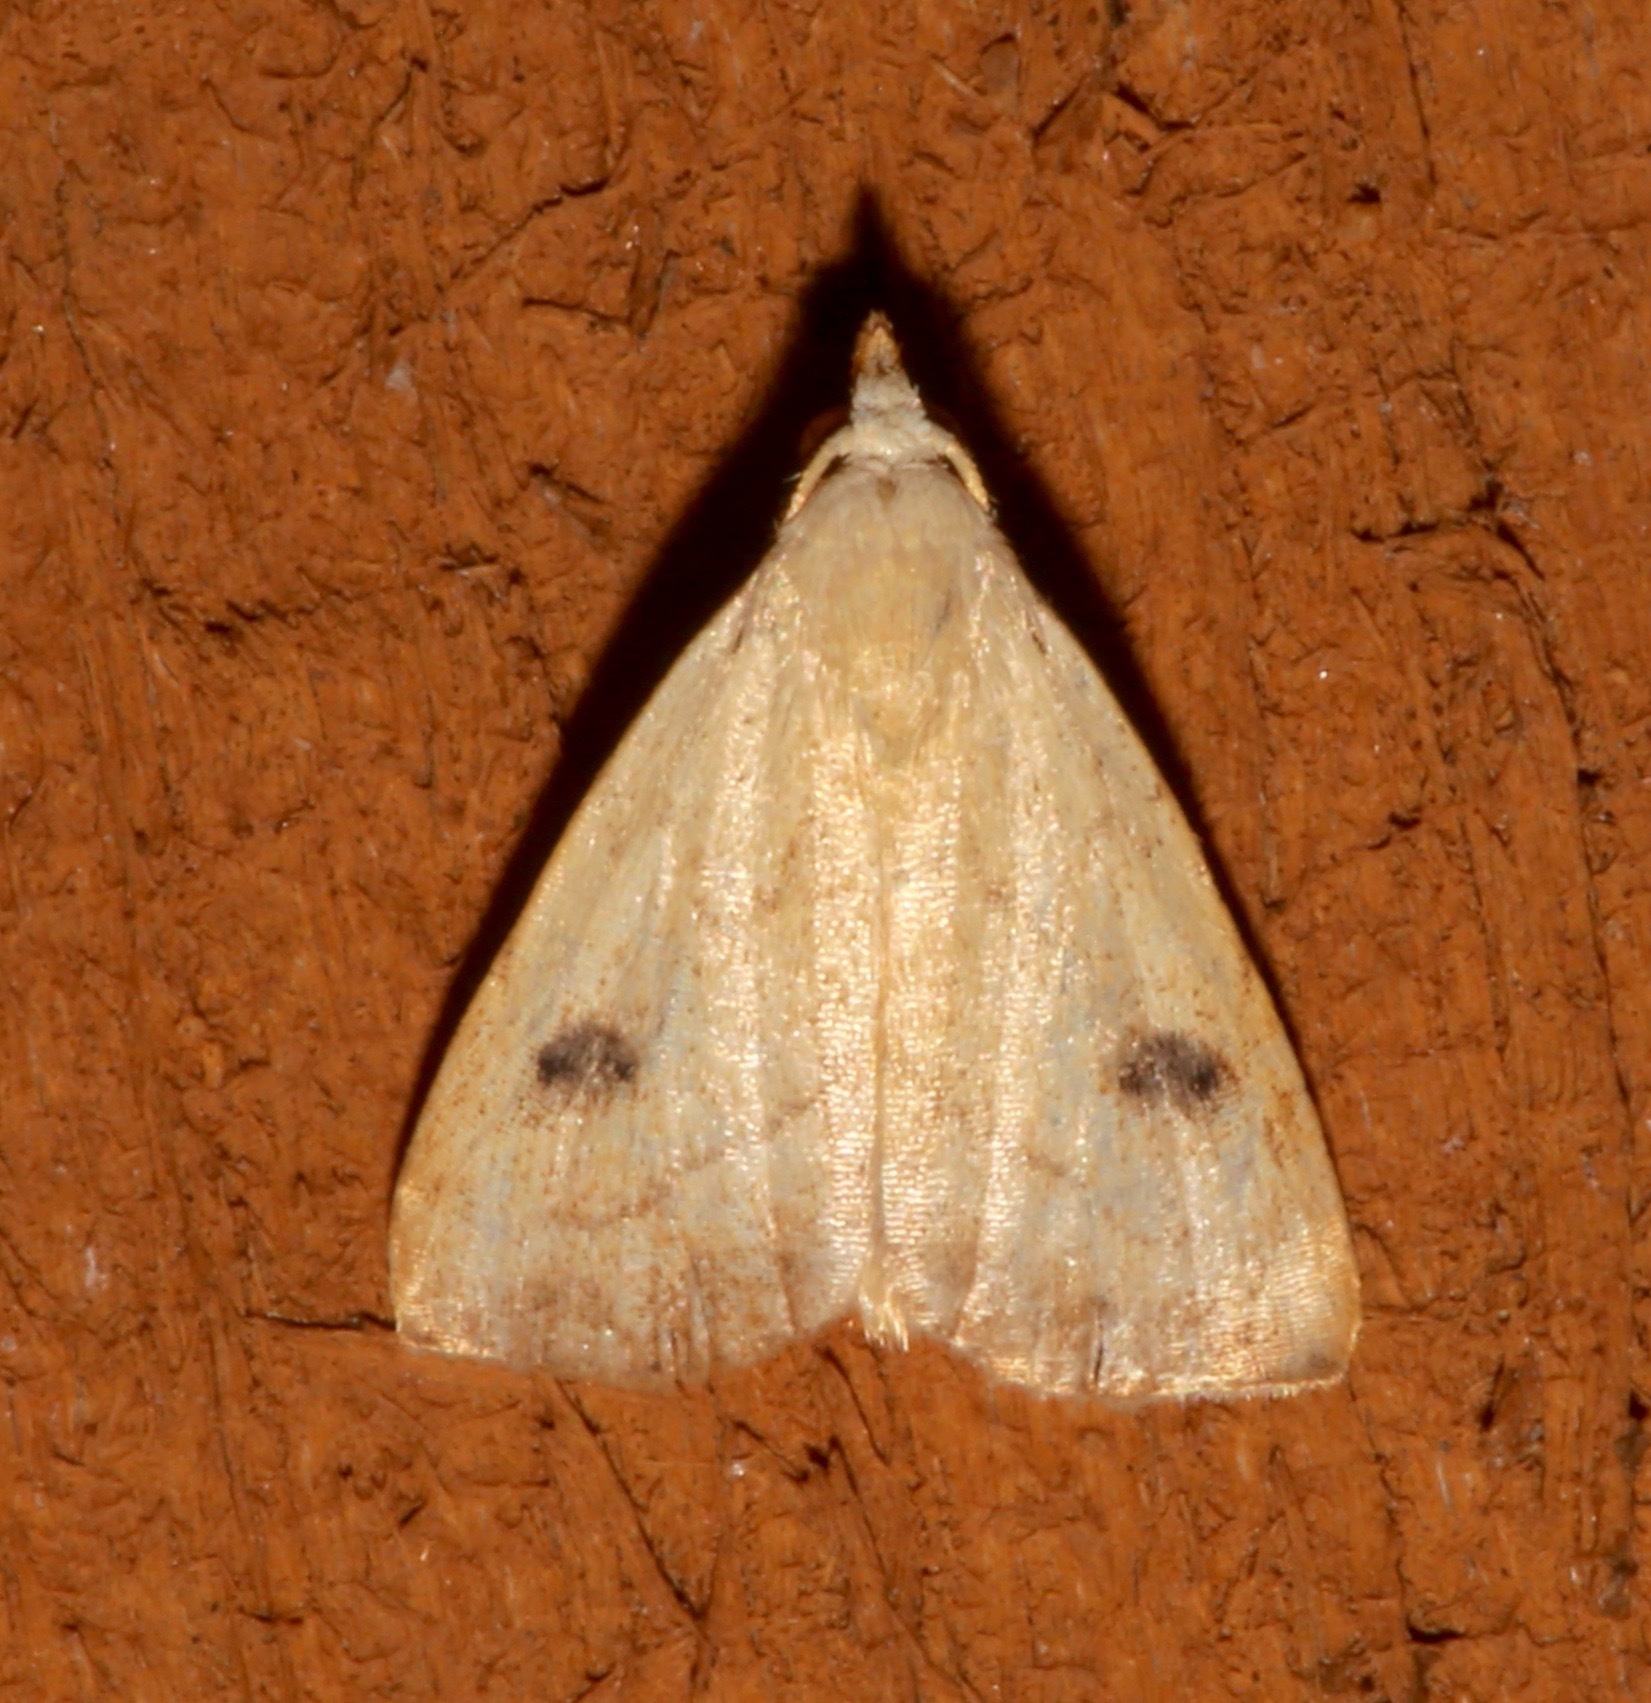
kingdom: Animalia
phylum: Arthropoda
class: Insecta
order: Lepidoptera
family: Erebidae
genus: Rivula
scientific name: Rivula propinqualis
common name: Spotted grass moth
